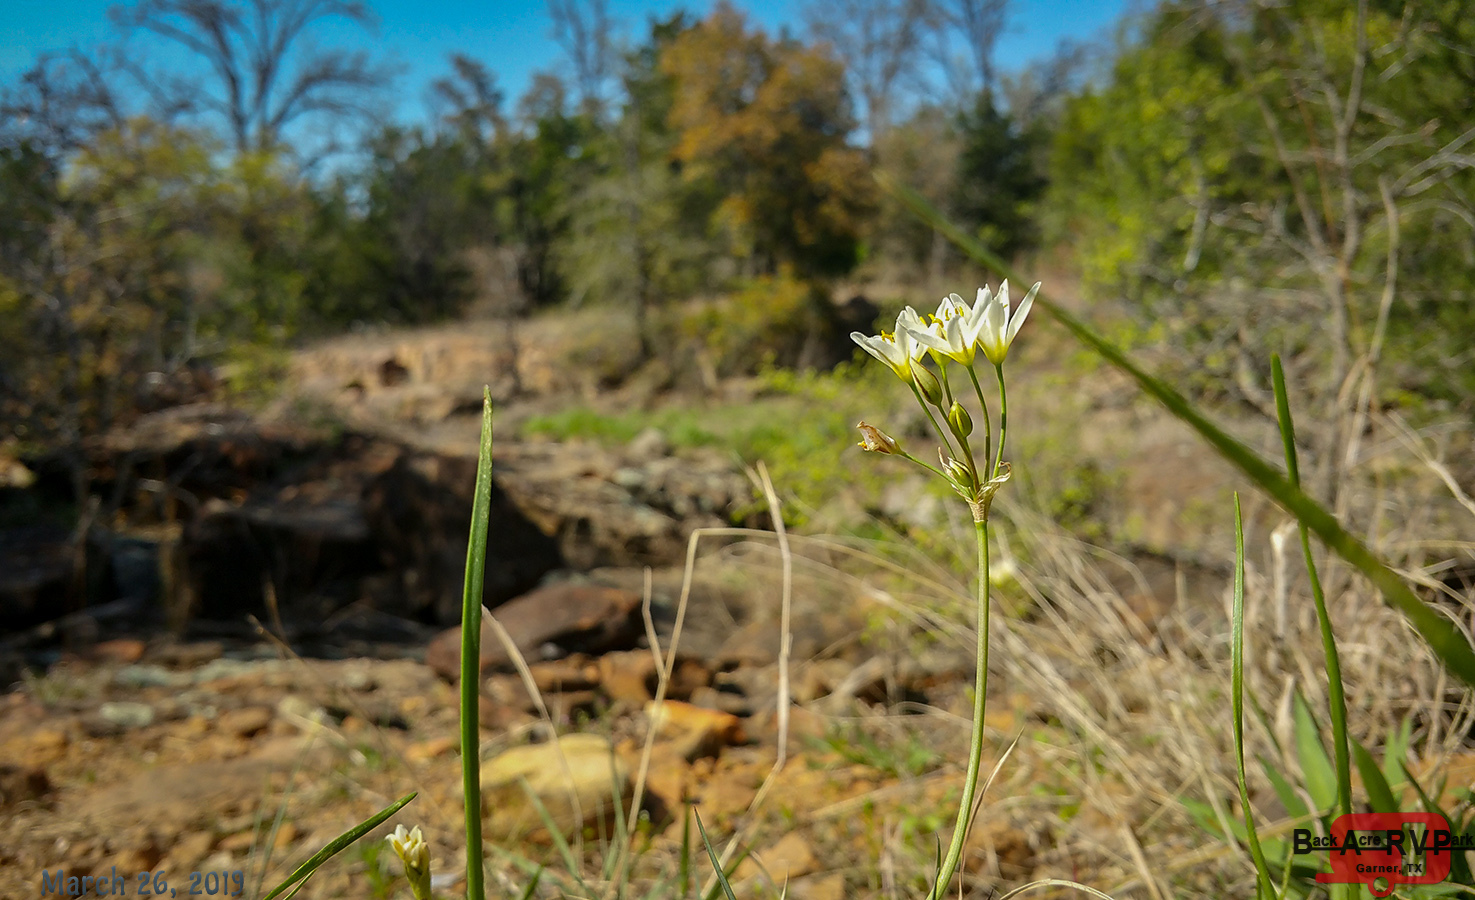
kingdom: Plantae
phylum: Tracheophyta
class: Liliopsida
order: Asparagales
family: Amaryllidaceae
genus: Nothoscordum
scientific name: Nothoscordum bivalve
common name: Crow-poison
